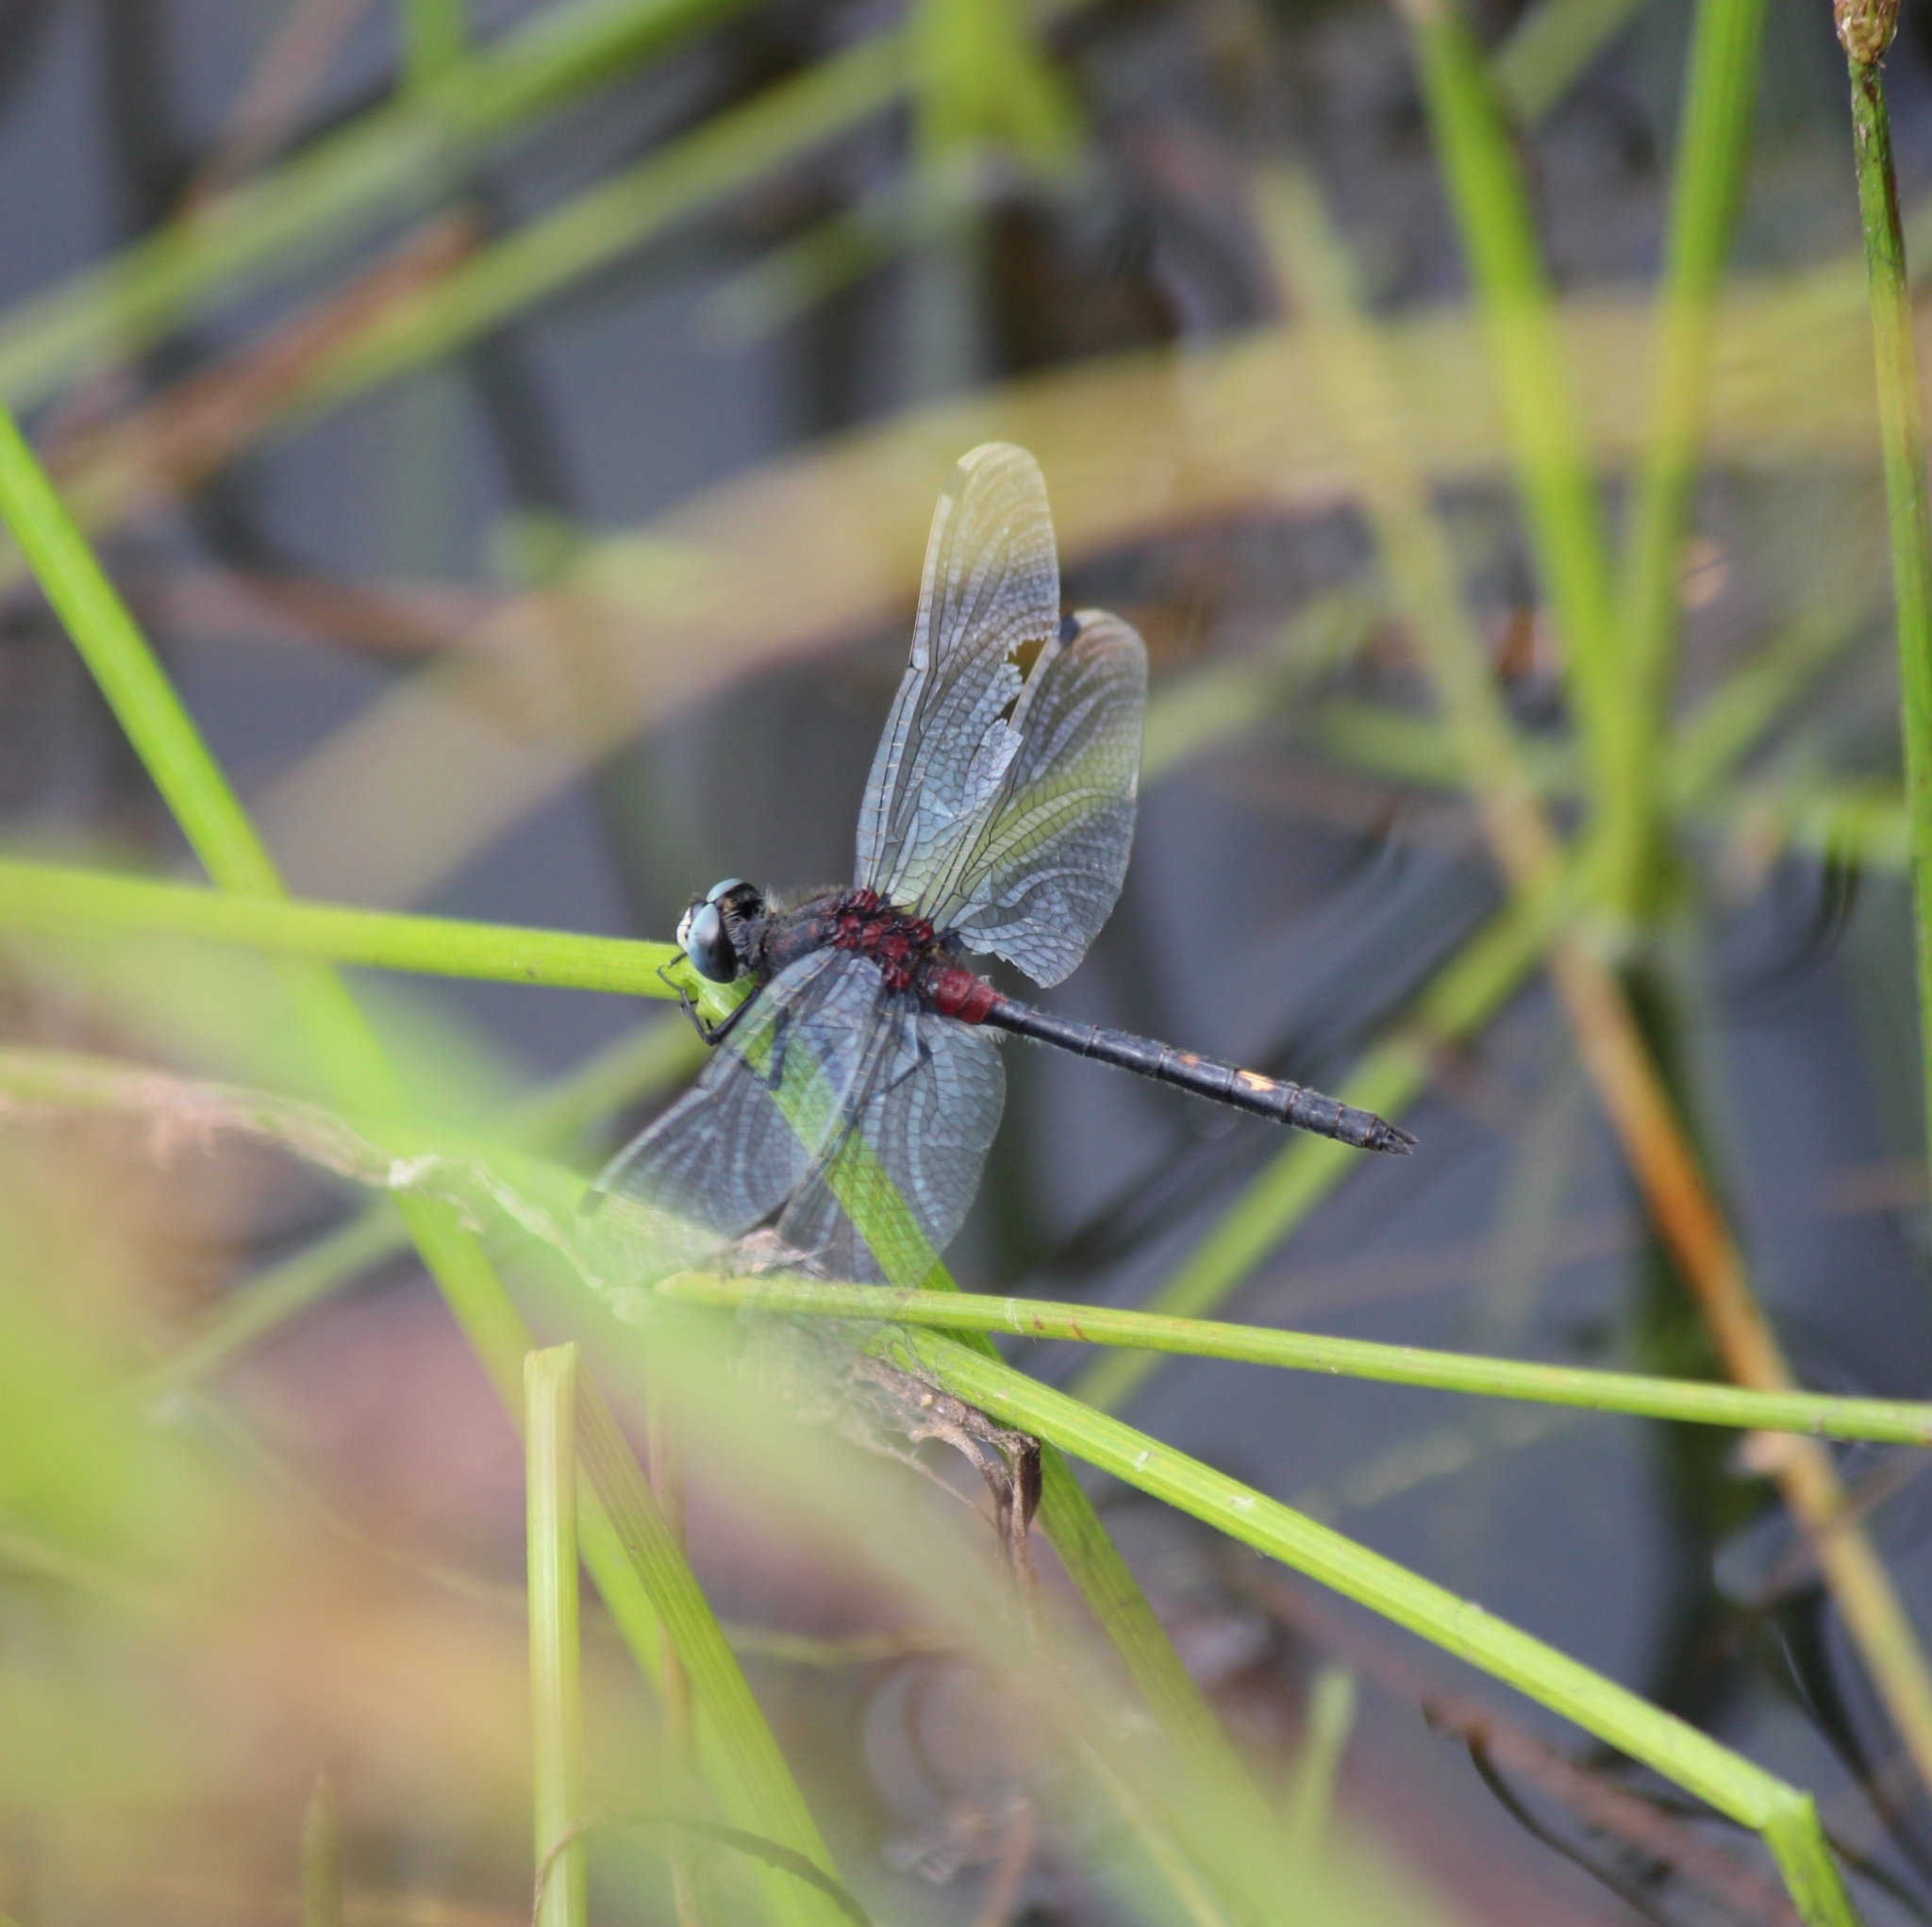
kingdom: Animalia
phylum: Arthropoda
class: Insecta
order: Odonata
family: Libellulidae
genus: Leucorrhinia
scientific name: Leucorrhinia orientalis
